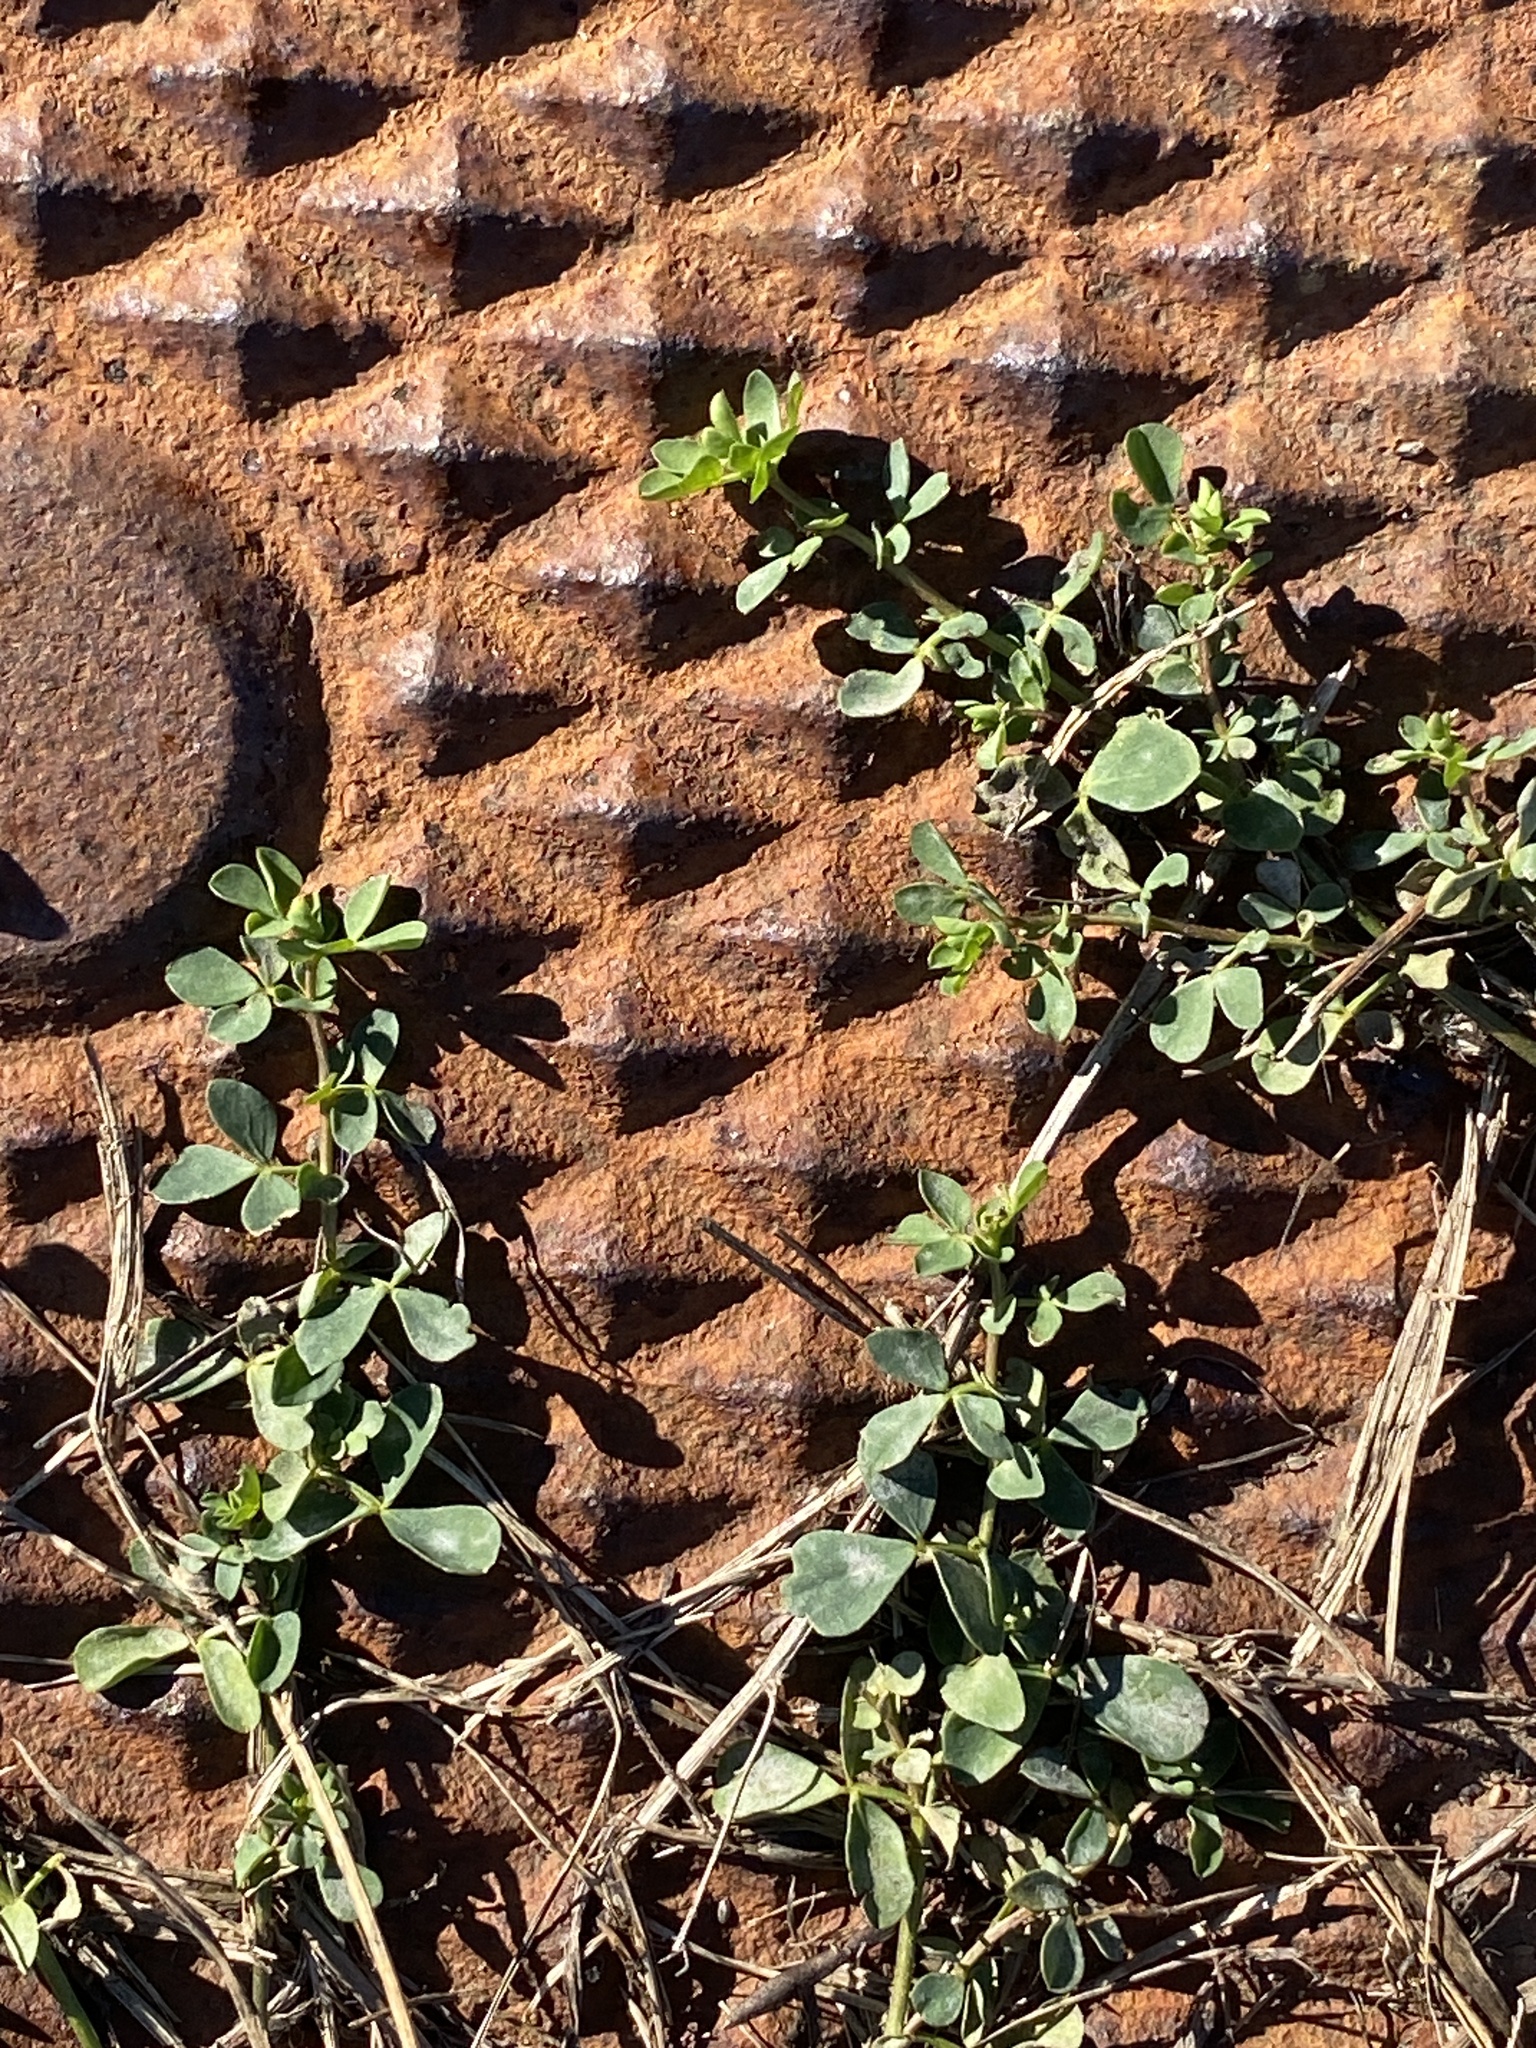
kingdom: Plantae
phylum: Tracheophyta
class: Magnoliopsida
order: Fabales
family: Fabaceae
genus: Lotus
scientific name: Lotus corniculatus
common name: Common bird's-foot-trefoil
